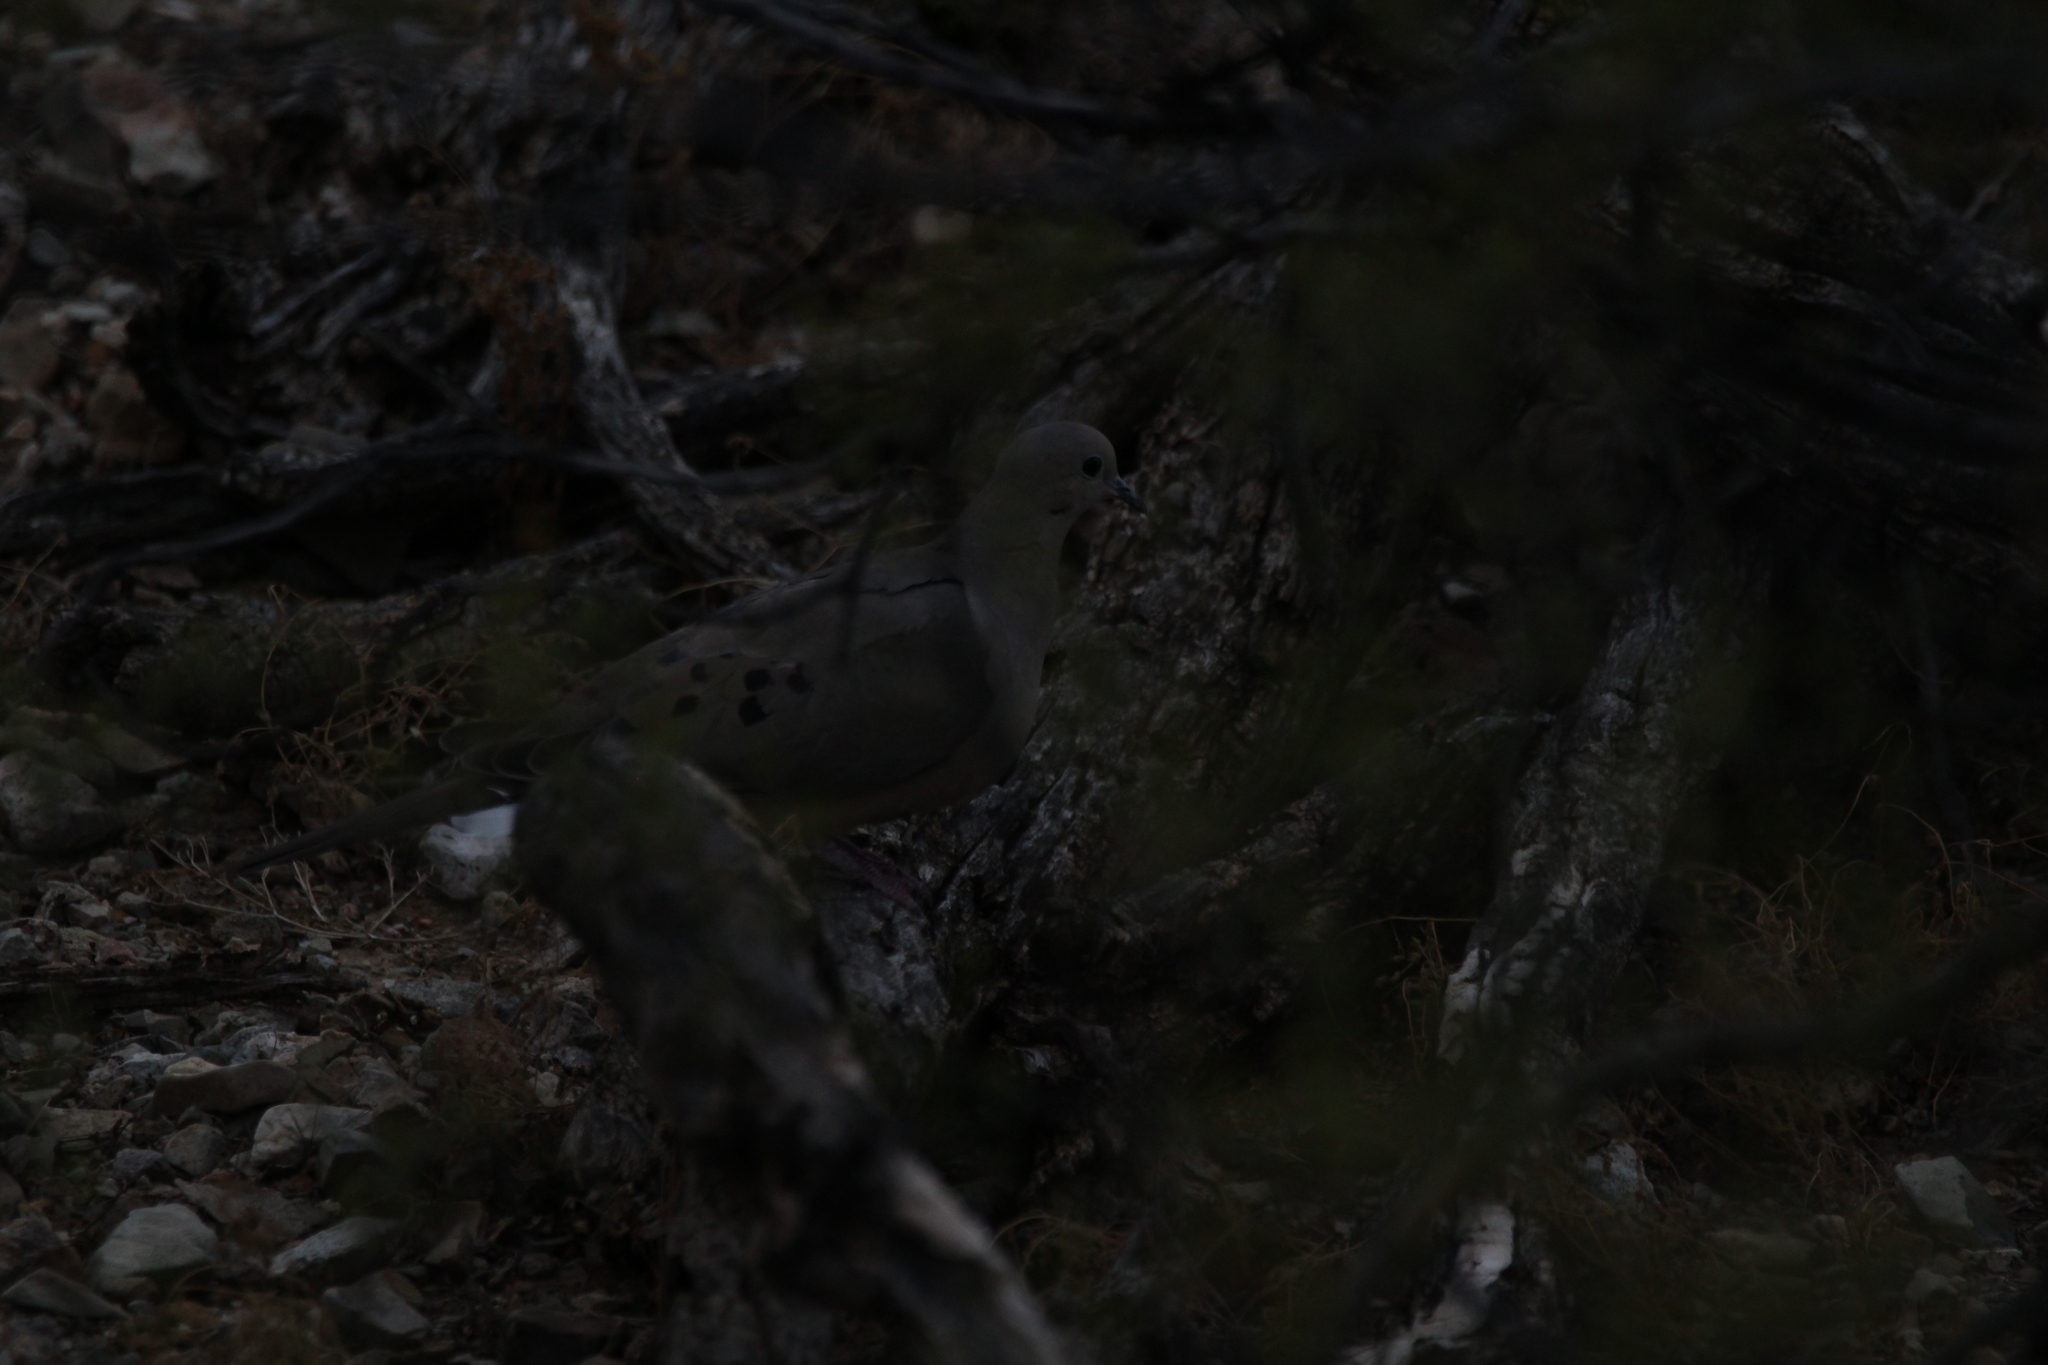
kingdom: Animalia
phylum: Chordata
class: Aves
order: Columbiformes
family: Columbidae
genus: Zenaida
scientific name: Zenaida macroura
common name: Mourning dove
